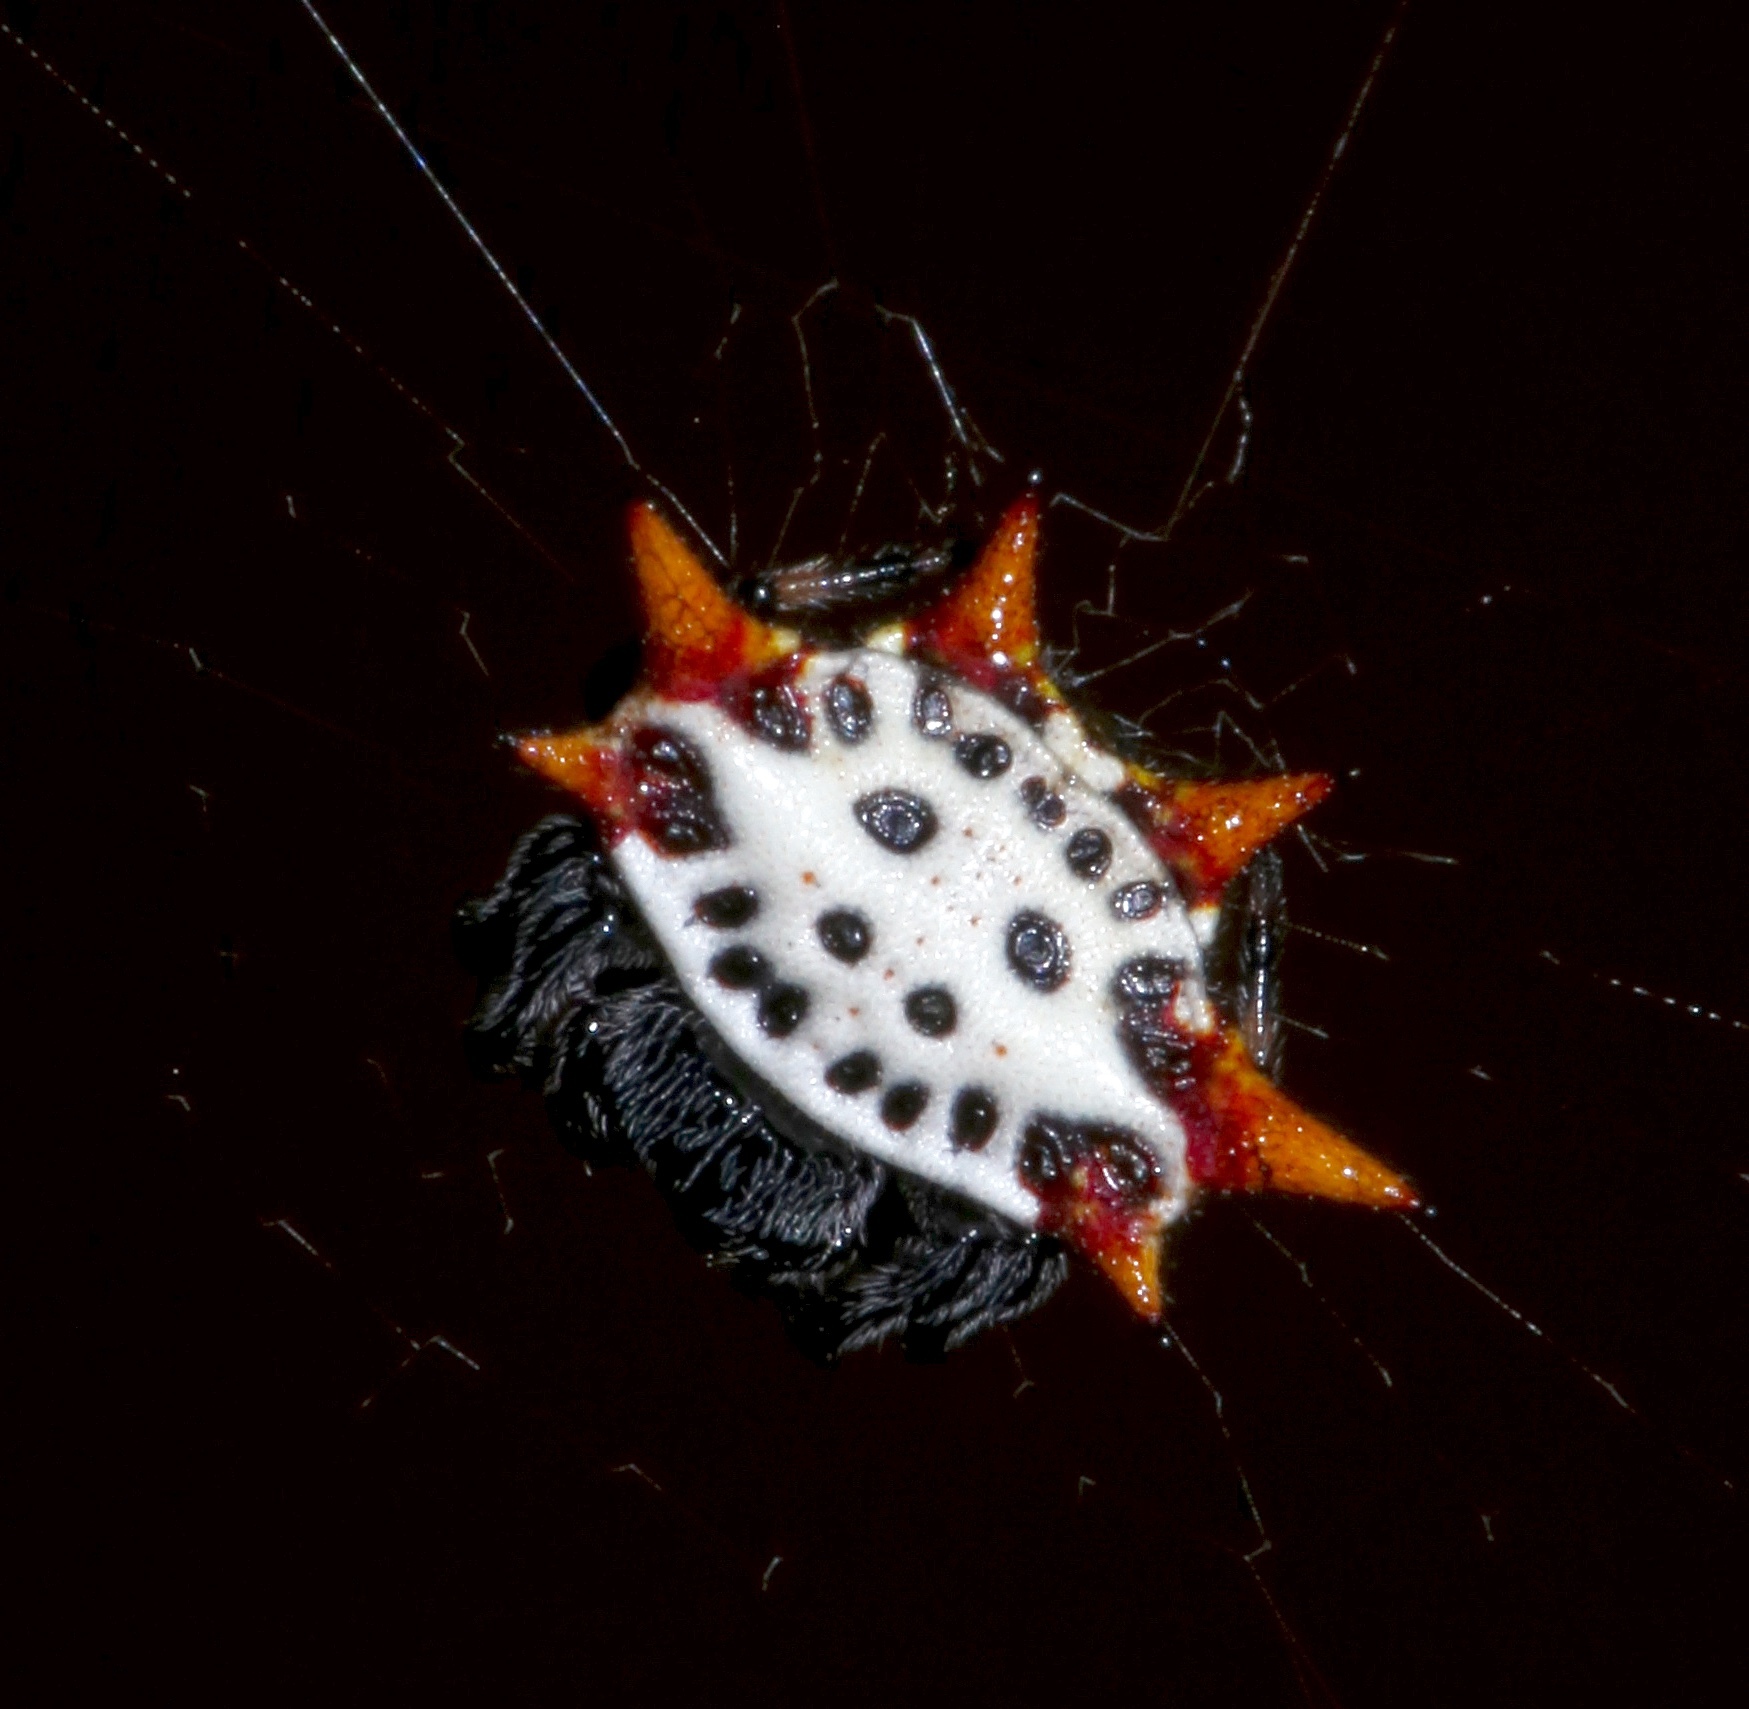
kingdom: Animalia
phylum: Arthropoda
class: Arachnida
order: Araneae
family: Araneidae
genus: Gasteracantha
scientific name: Gasteracantha cancriformis
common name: Orb weavers
